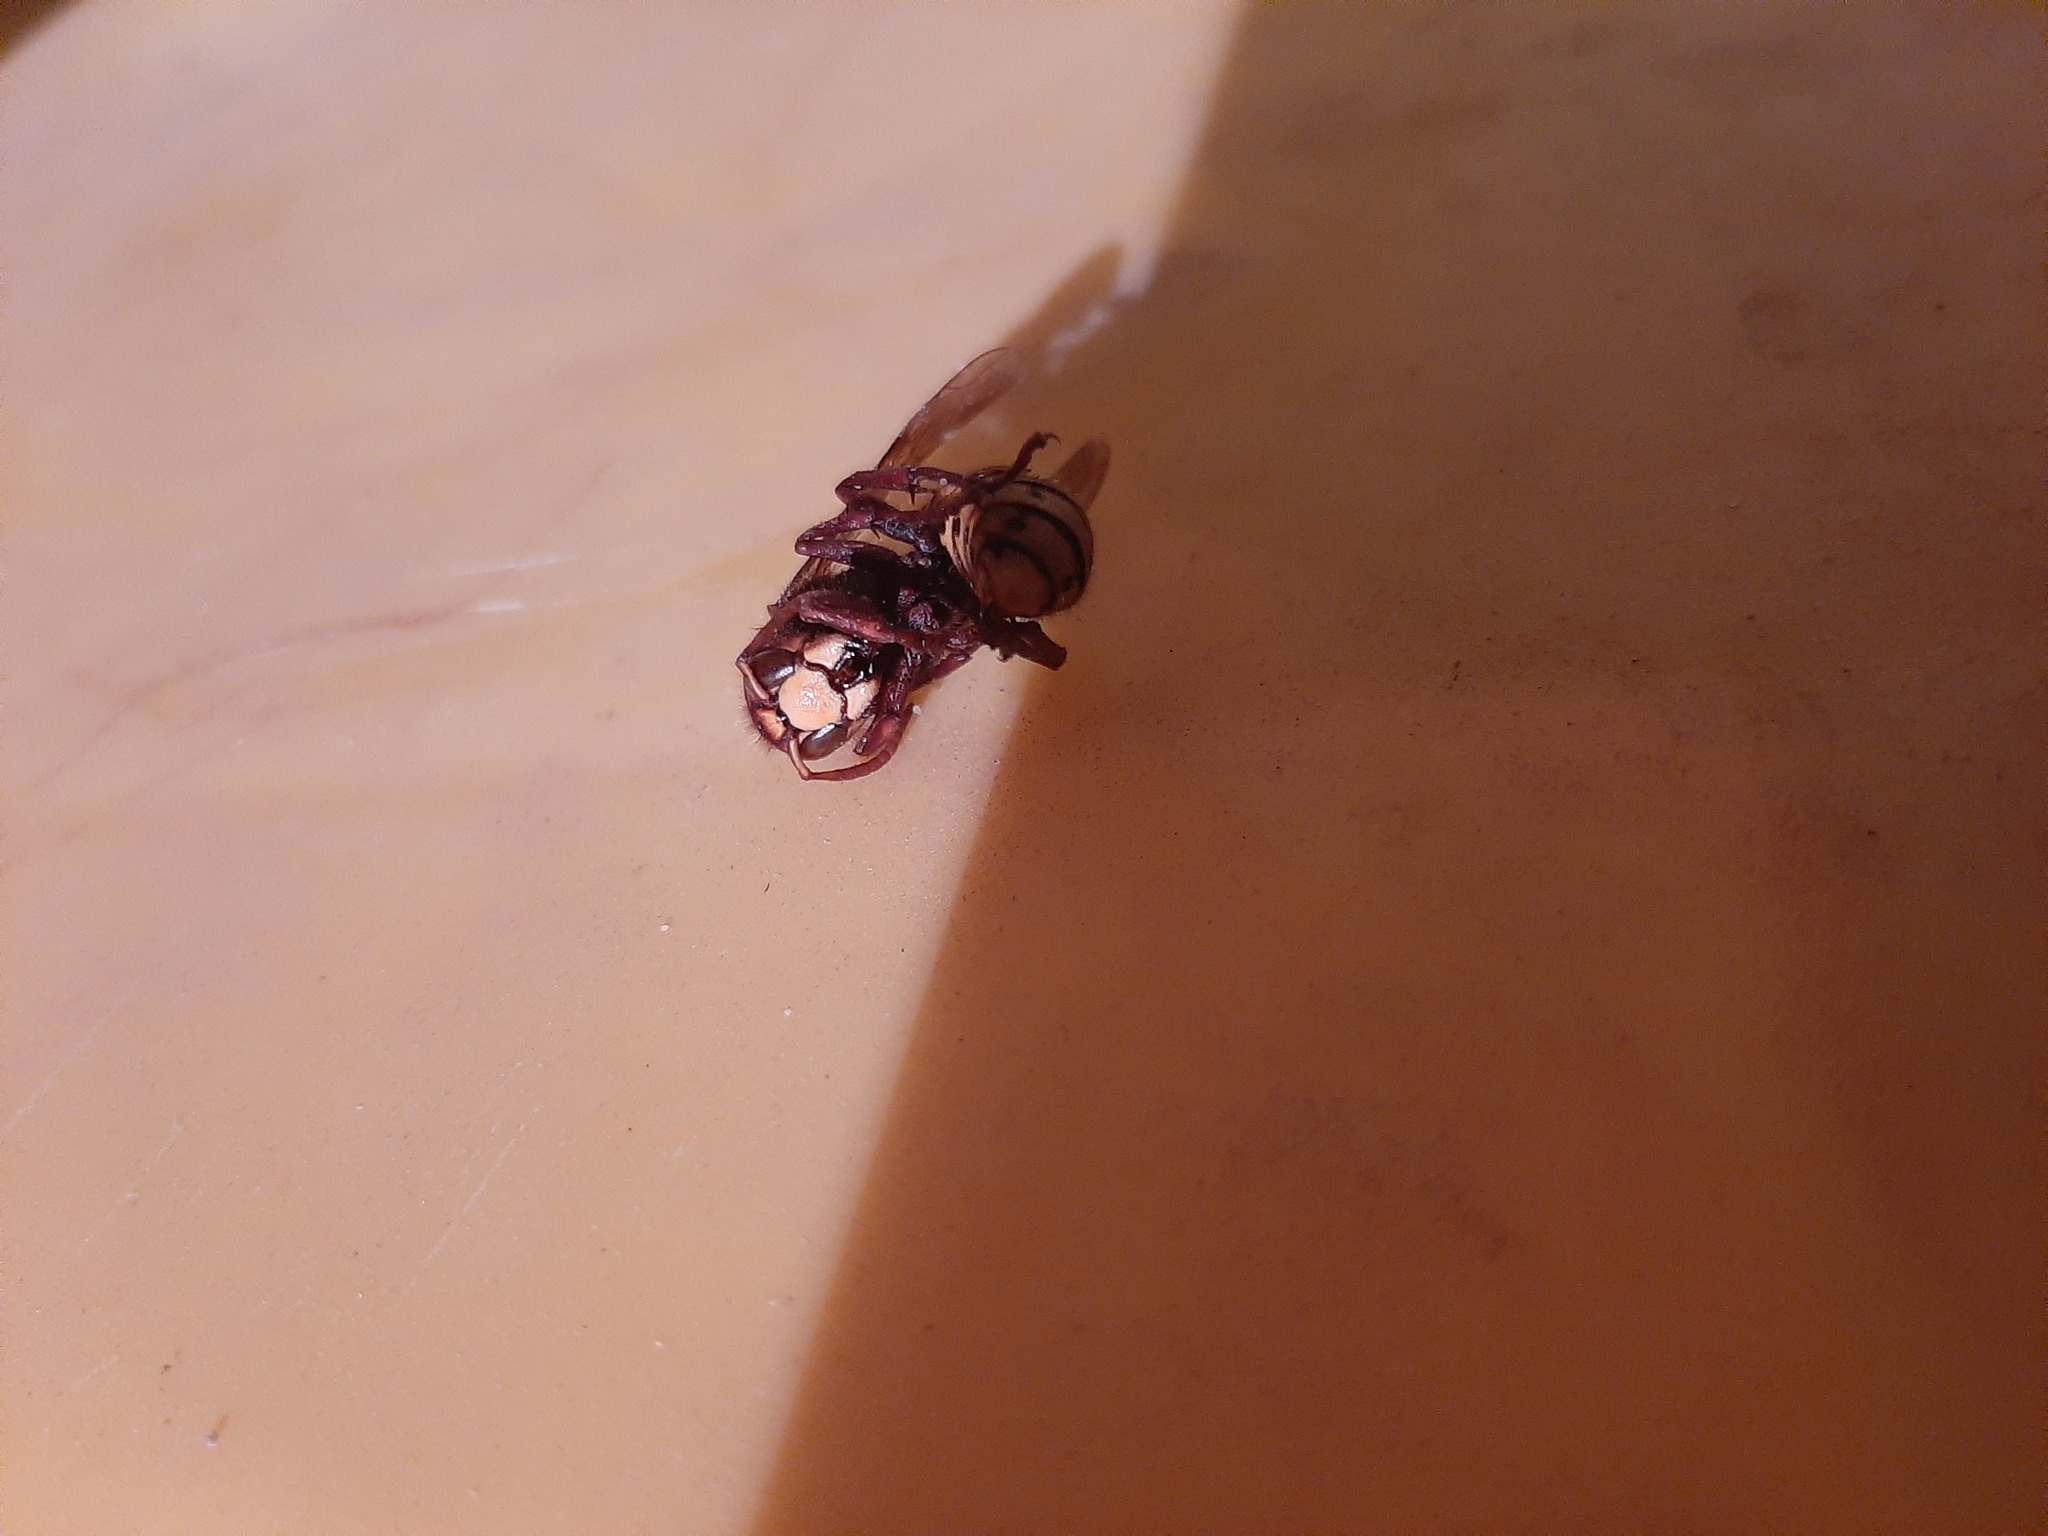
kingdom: Animalia
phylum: Arthropoda
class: Insecta
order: Hymenoptera
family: Vespidae
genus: Vespa
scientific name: Vespa crabro
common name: Hornet
